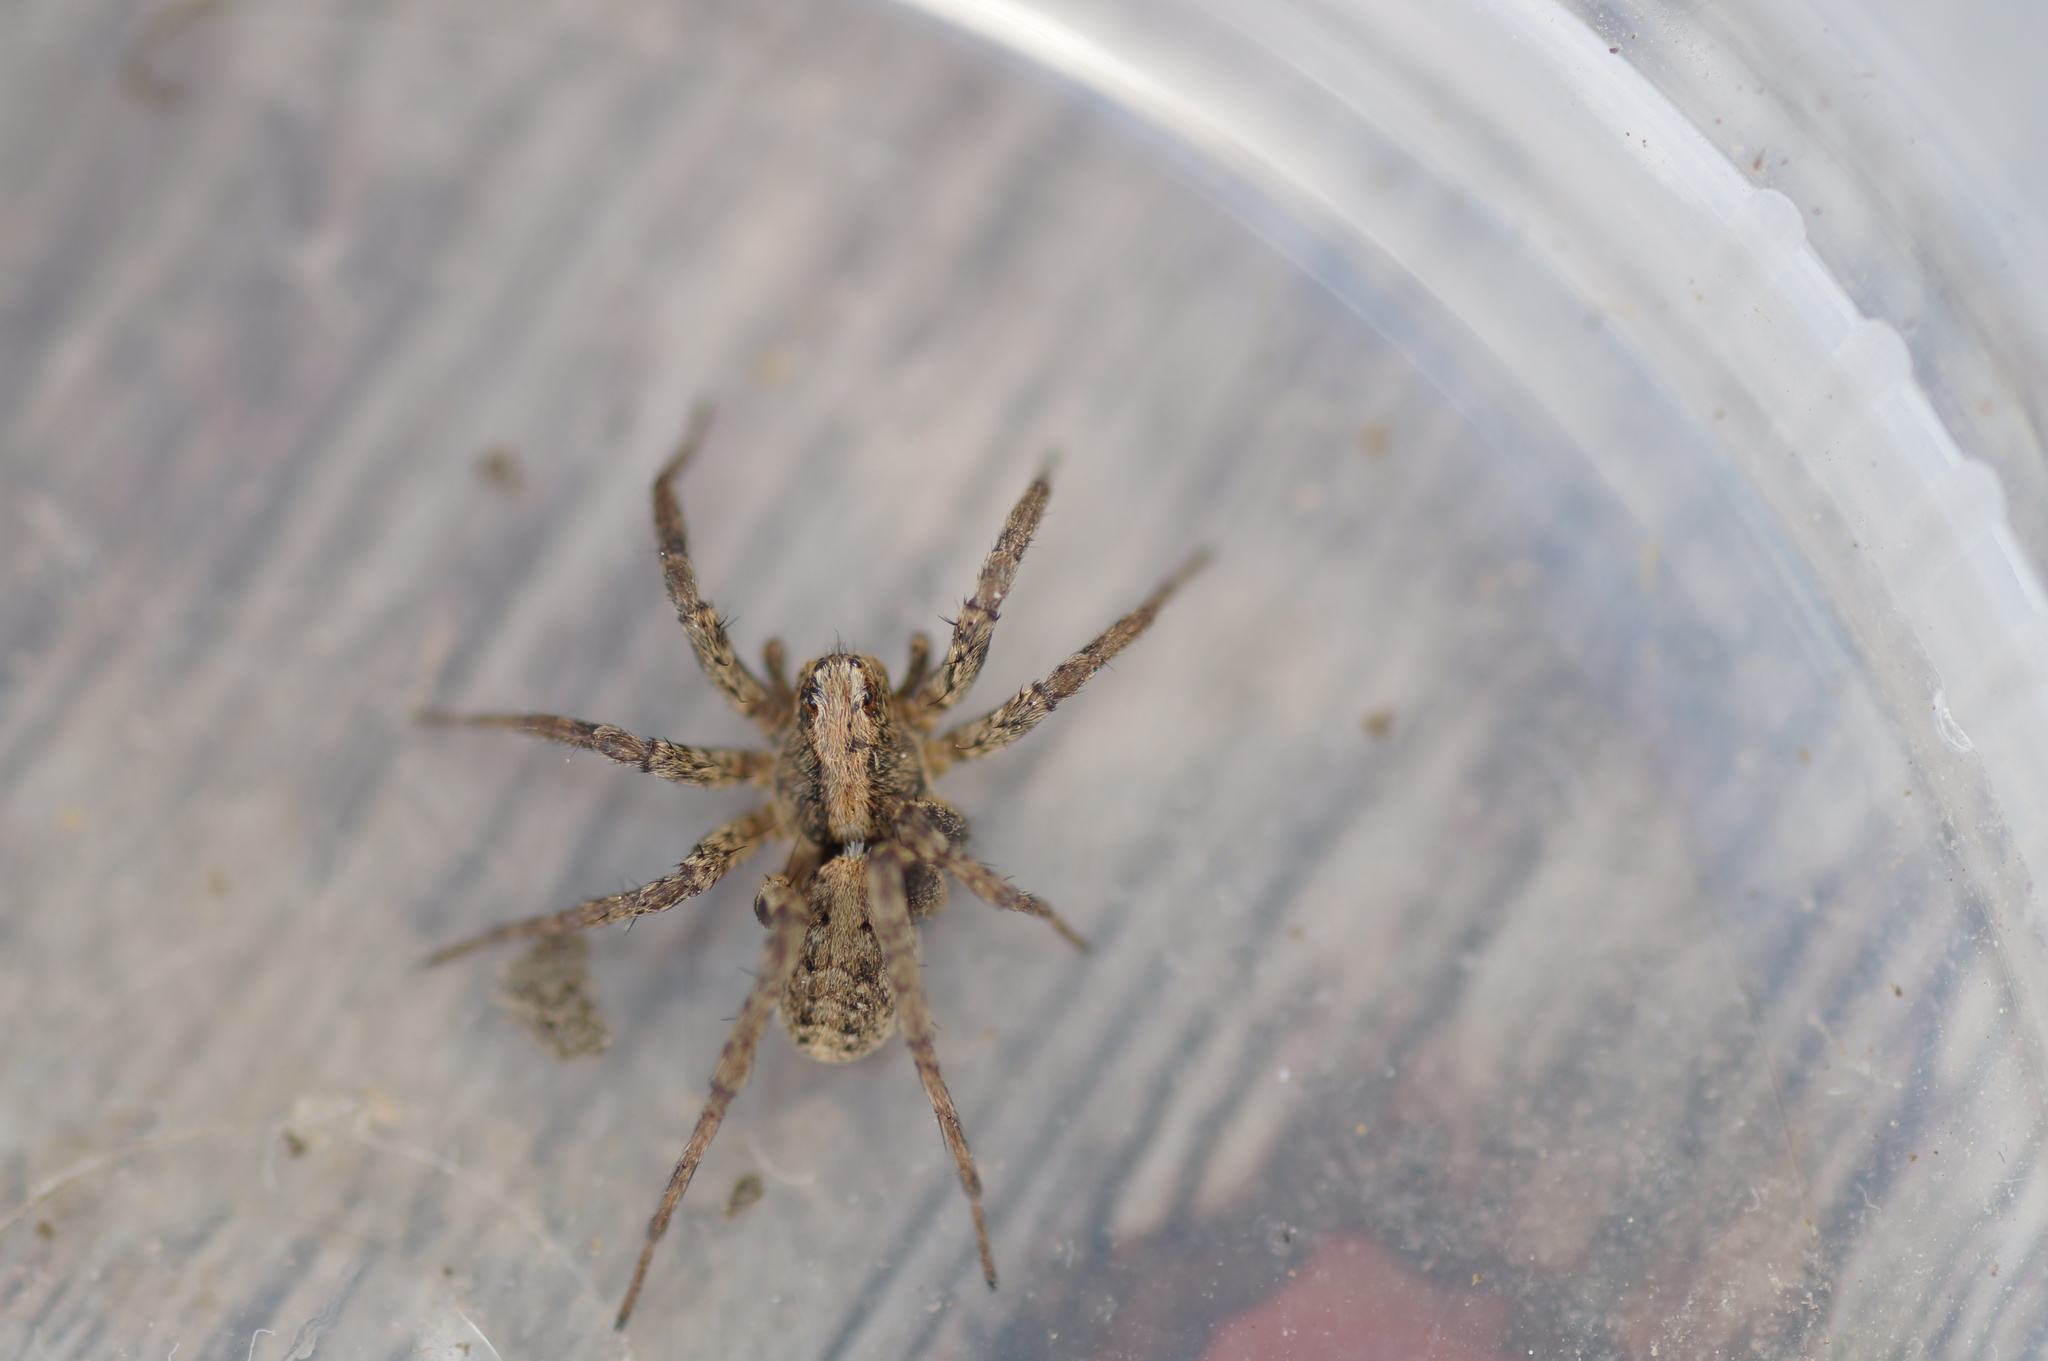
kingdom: Animalia
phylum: Arthropoda
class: Arachnida
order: Araneae
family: Lycosidae
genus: Xerolycosa
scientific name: Xerolycosa miniata
